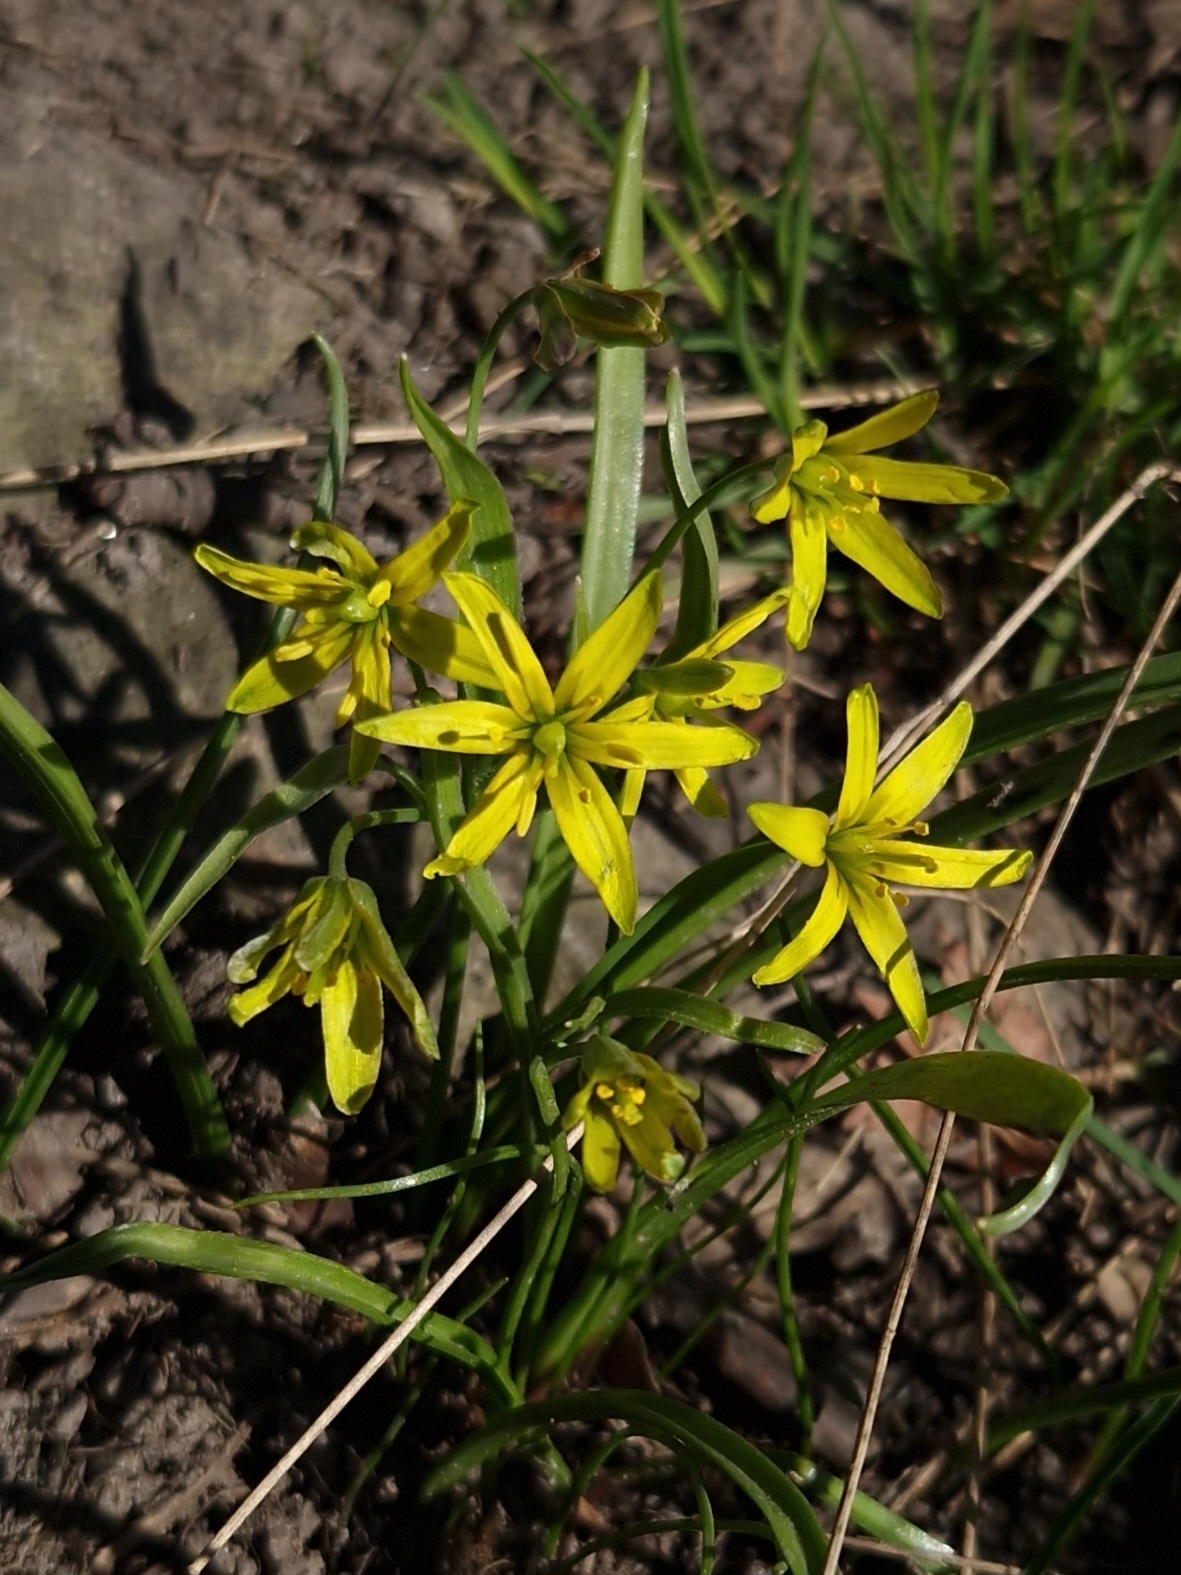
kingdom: Plantae
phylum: Tracheophyta
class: Liliopsida
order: Liliales
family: Liliaceae
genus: Gagea
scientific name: Gagea lutea
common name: Yellow star-of-bethlehem
